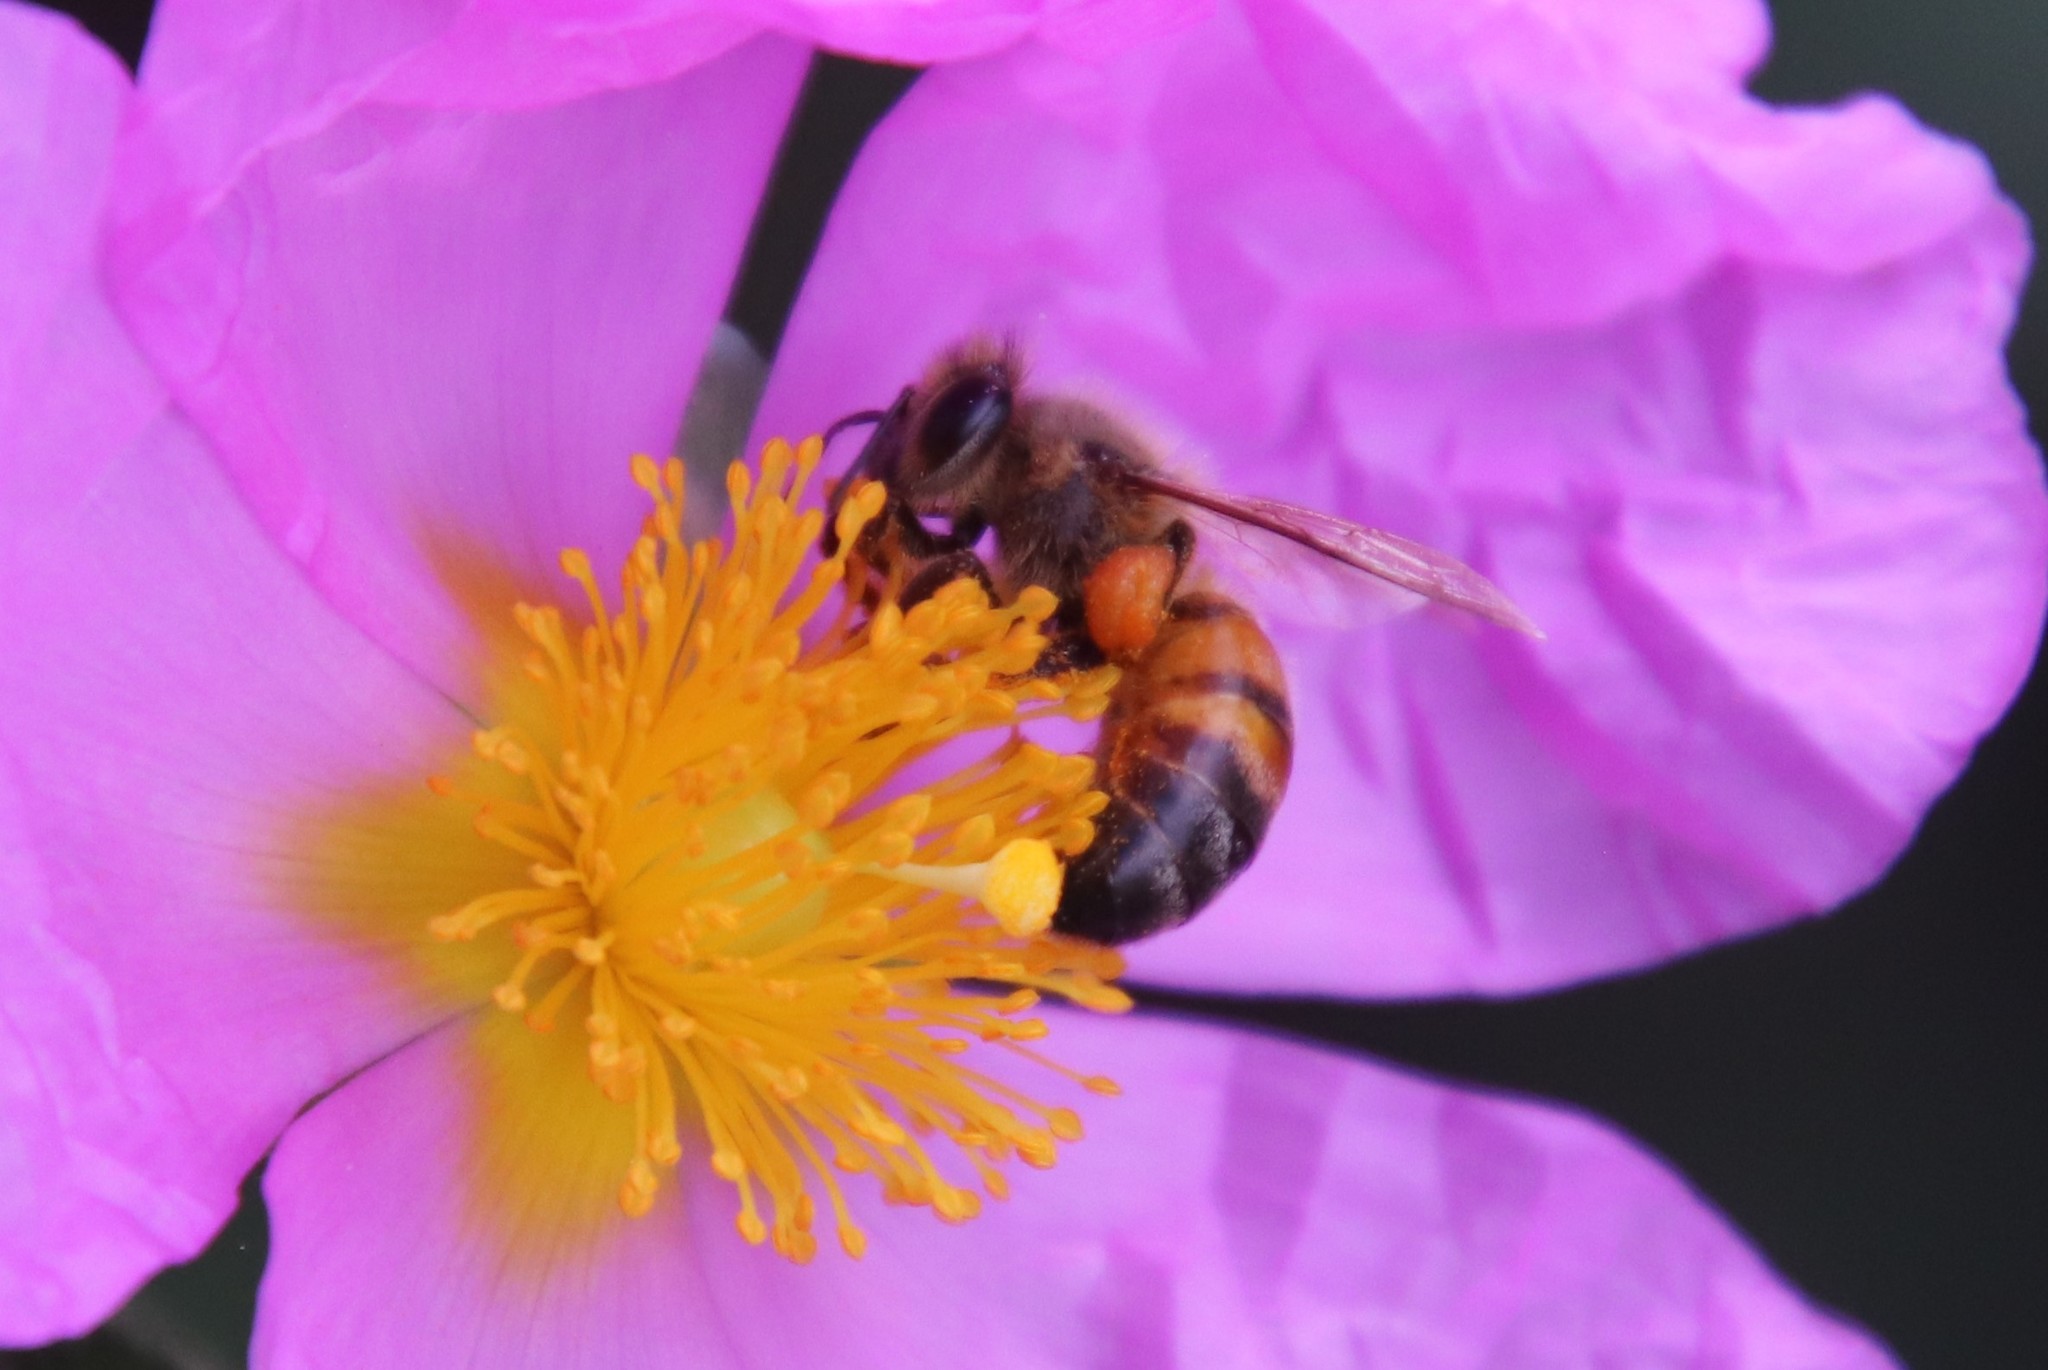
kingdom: Animalia
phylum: Arthropoda
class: Insecta
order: Hymenoptera
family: Apidae
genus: Apis
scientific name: Apis mellifera
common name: Honey bee
